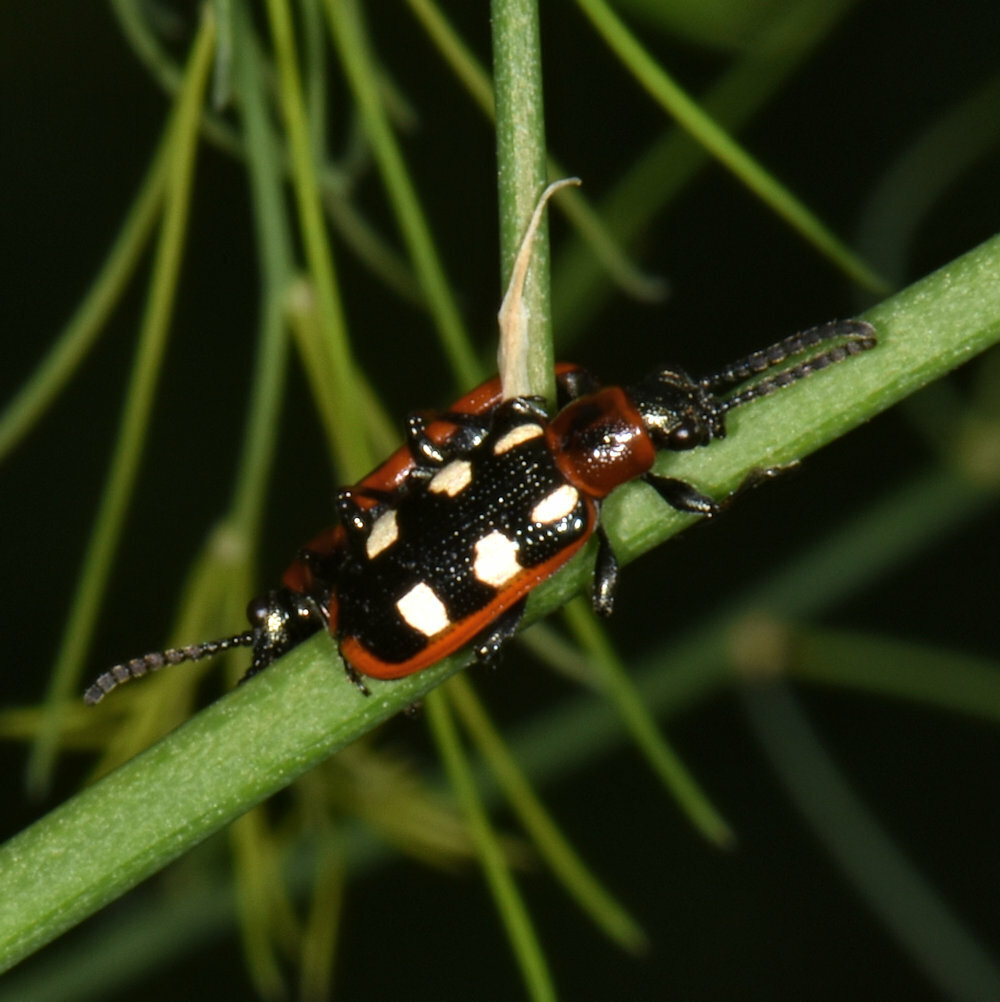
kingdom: Animalia
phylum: Arthropoda
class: Insecta
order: Coleoptera
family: Chrysomelidae
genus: Crioceris
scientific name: Crioceris asparagi
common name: Asparagus beetle
